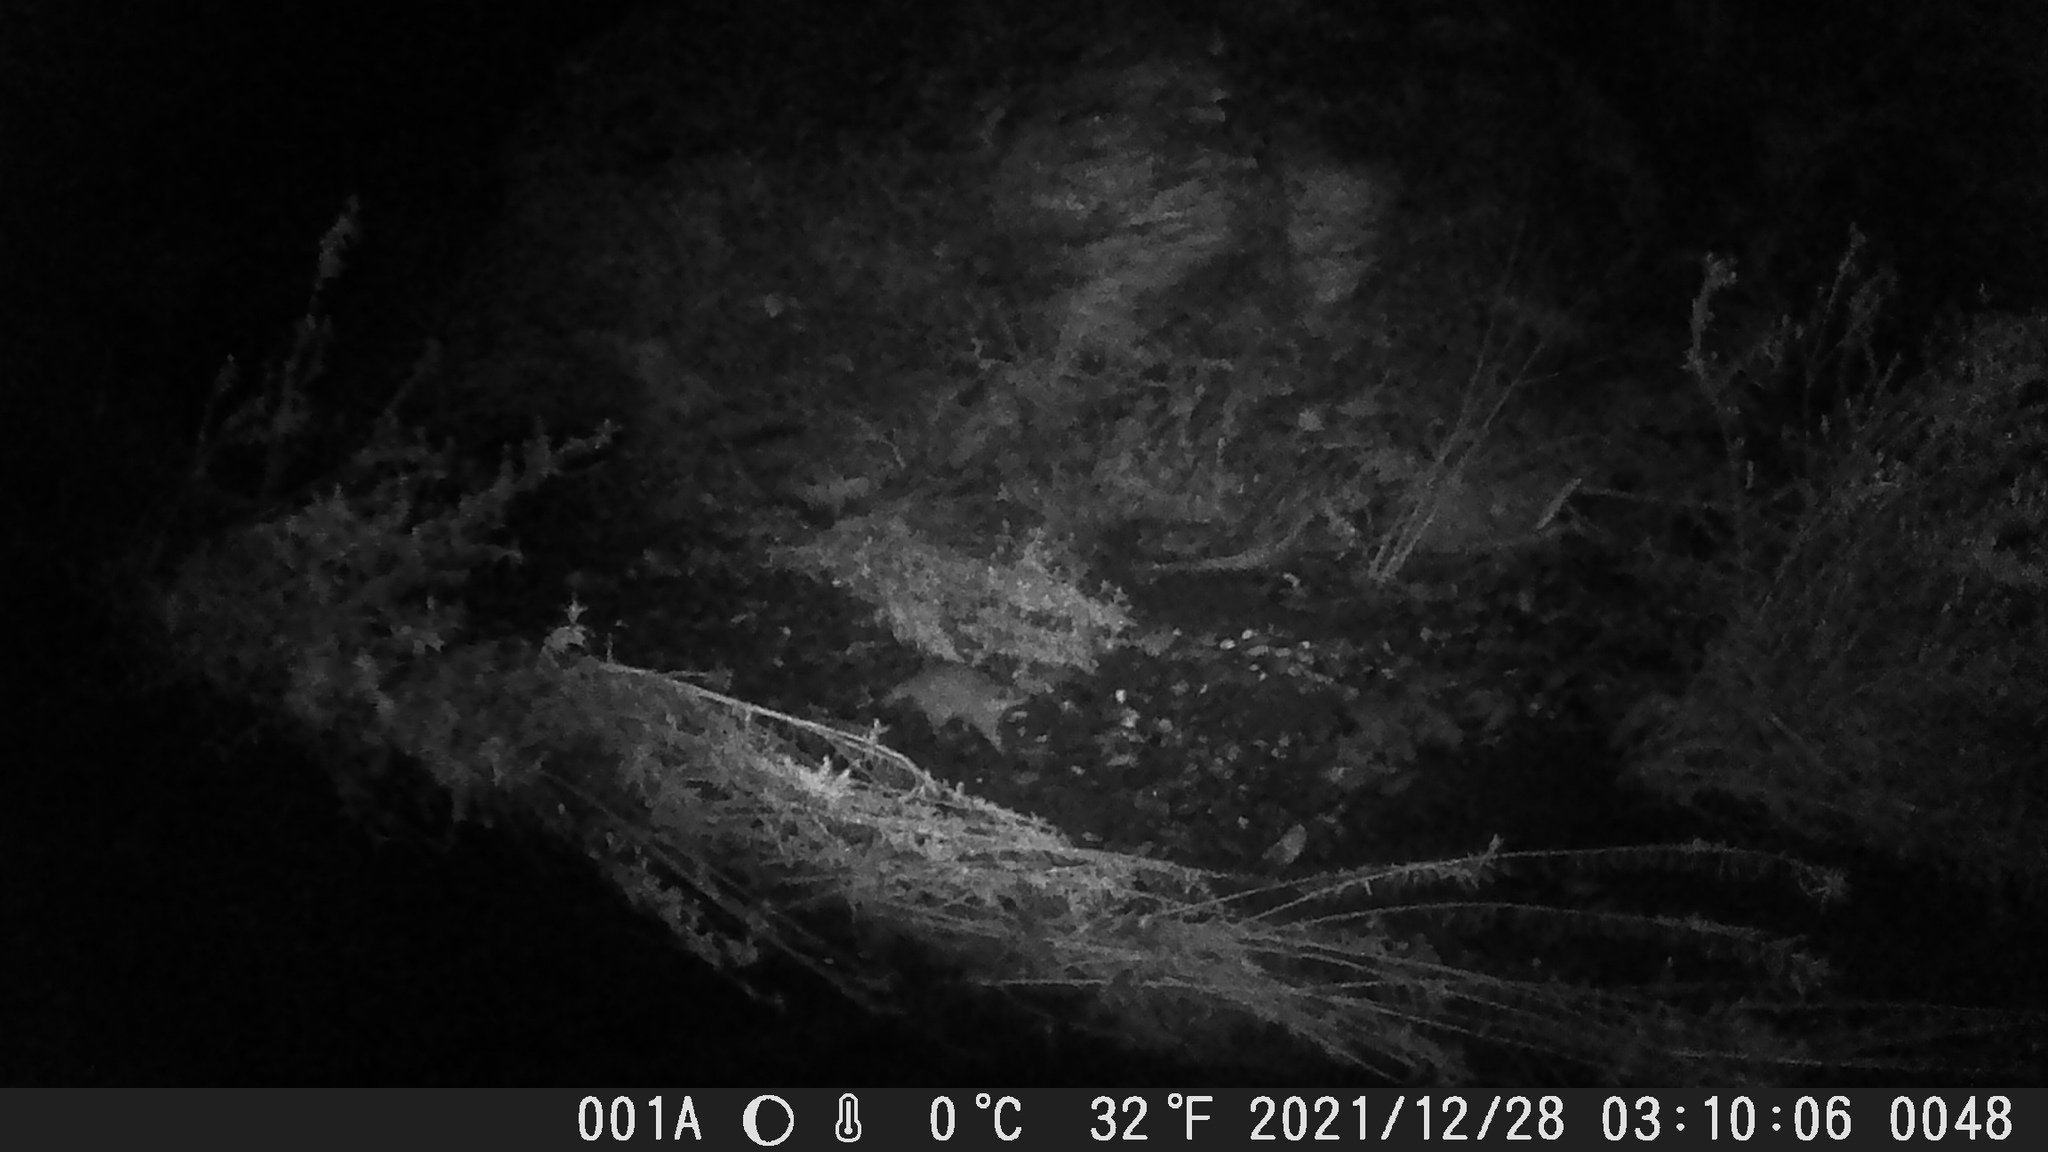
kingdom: Animalia
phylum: Chordata
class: Mammalia
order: Carnivora
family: Procyonidae
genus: Procyon
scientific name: Procyon lotor
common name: Raccoon
